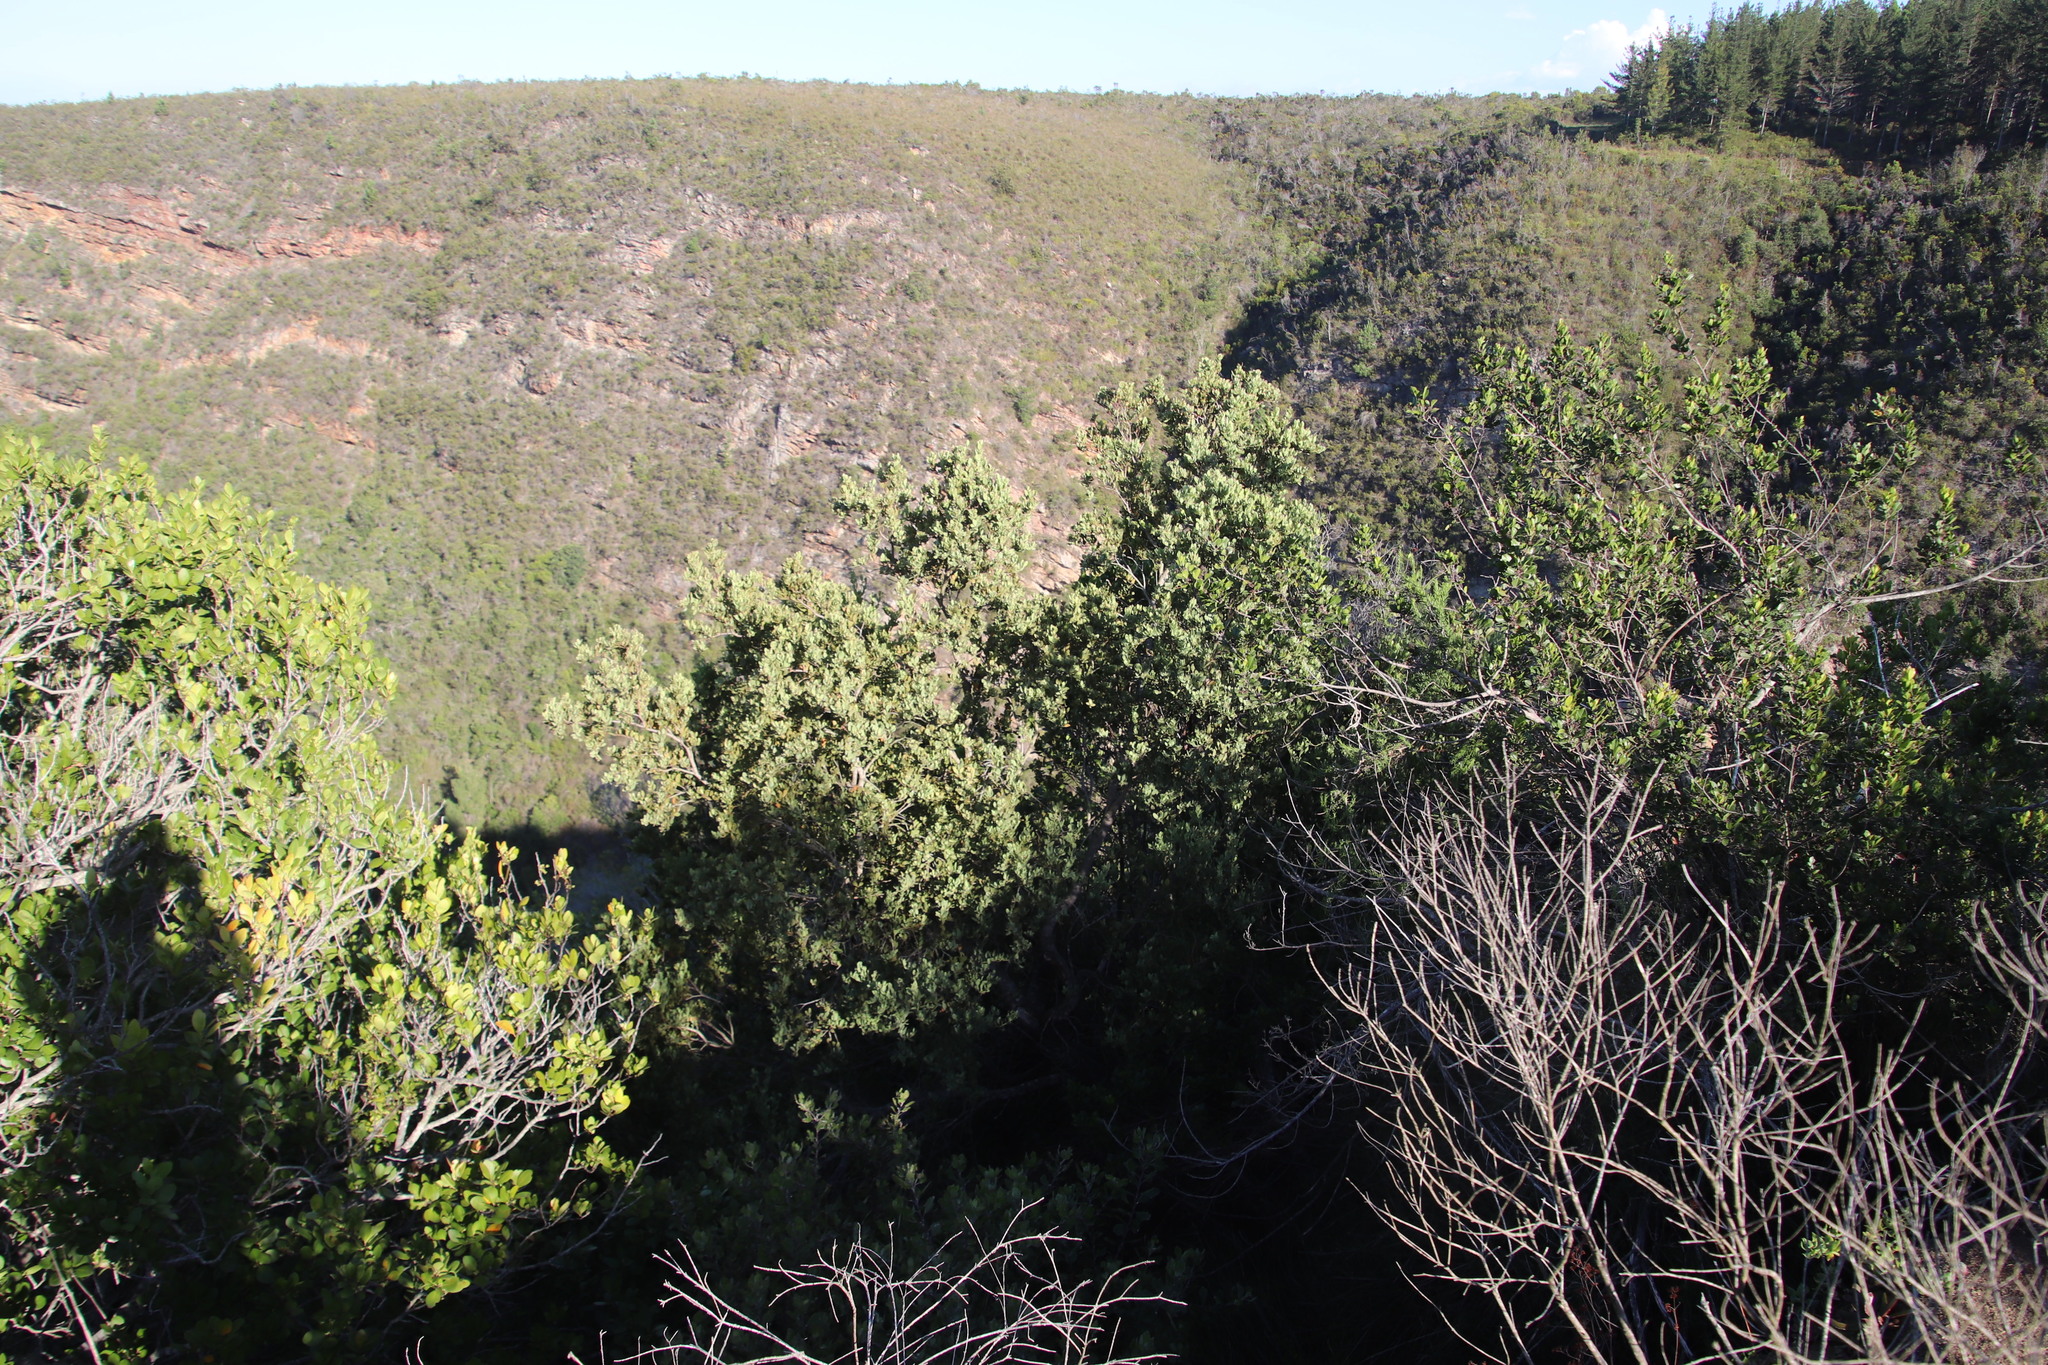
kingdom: Plantae
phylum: Tracheophyta
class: Magnoliopsida
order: Santalales
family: Santalaceae
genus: Osyris
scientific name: Osyris compressa
